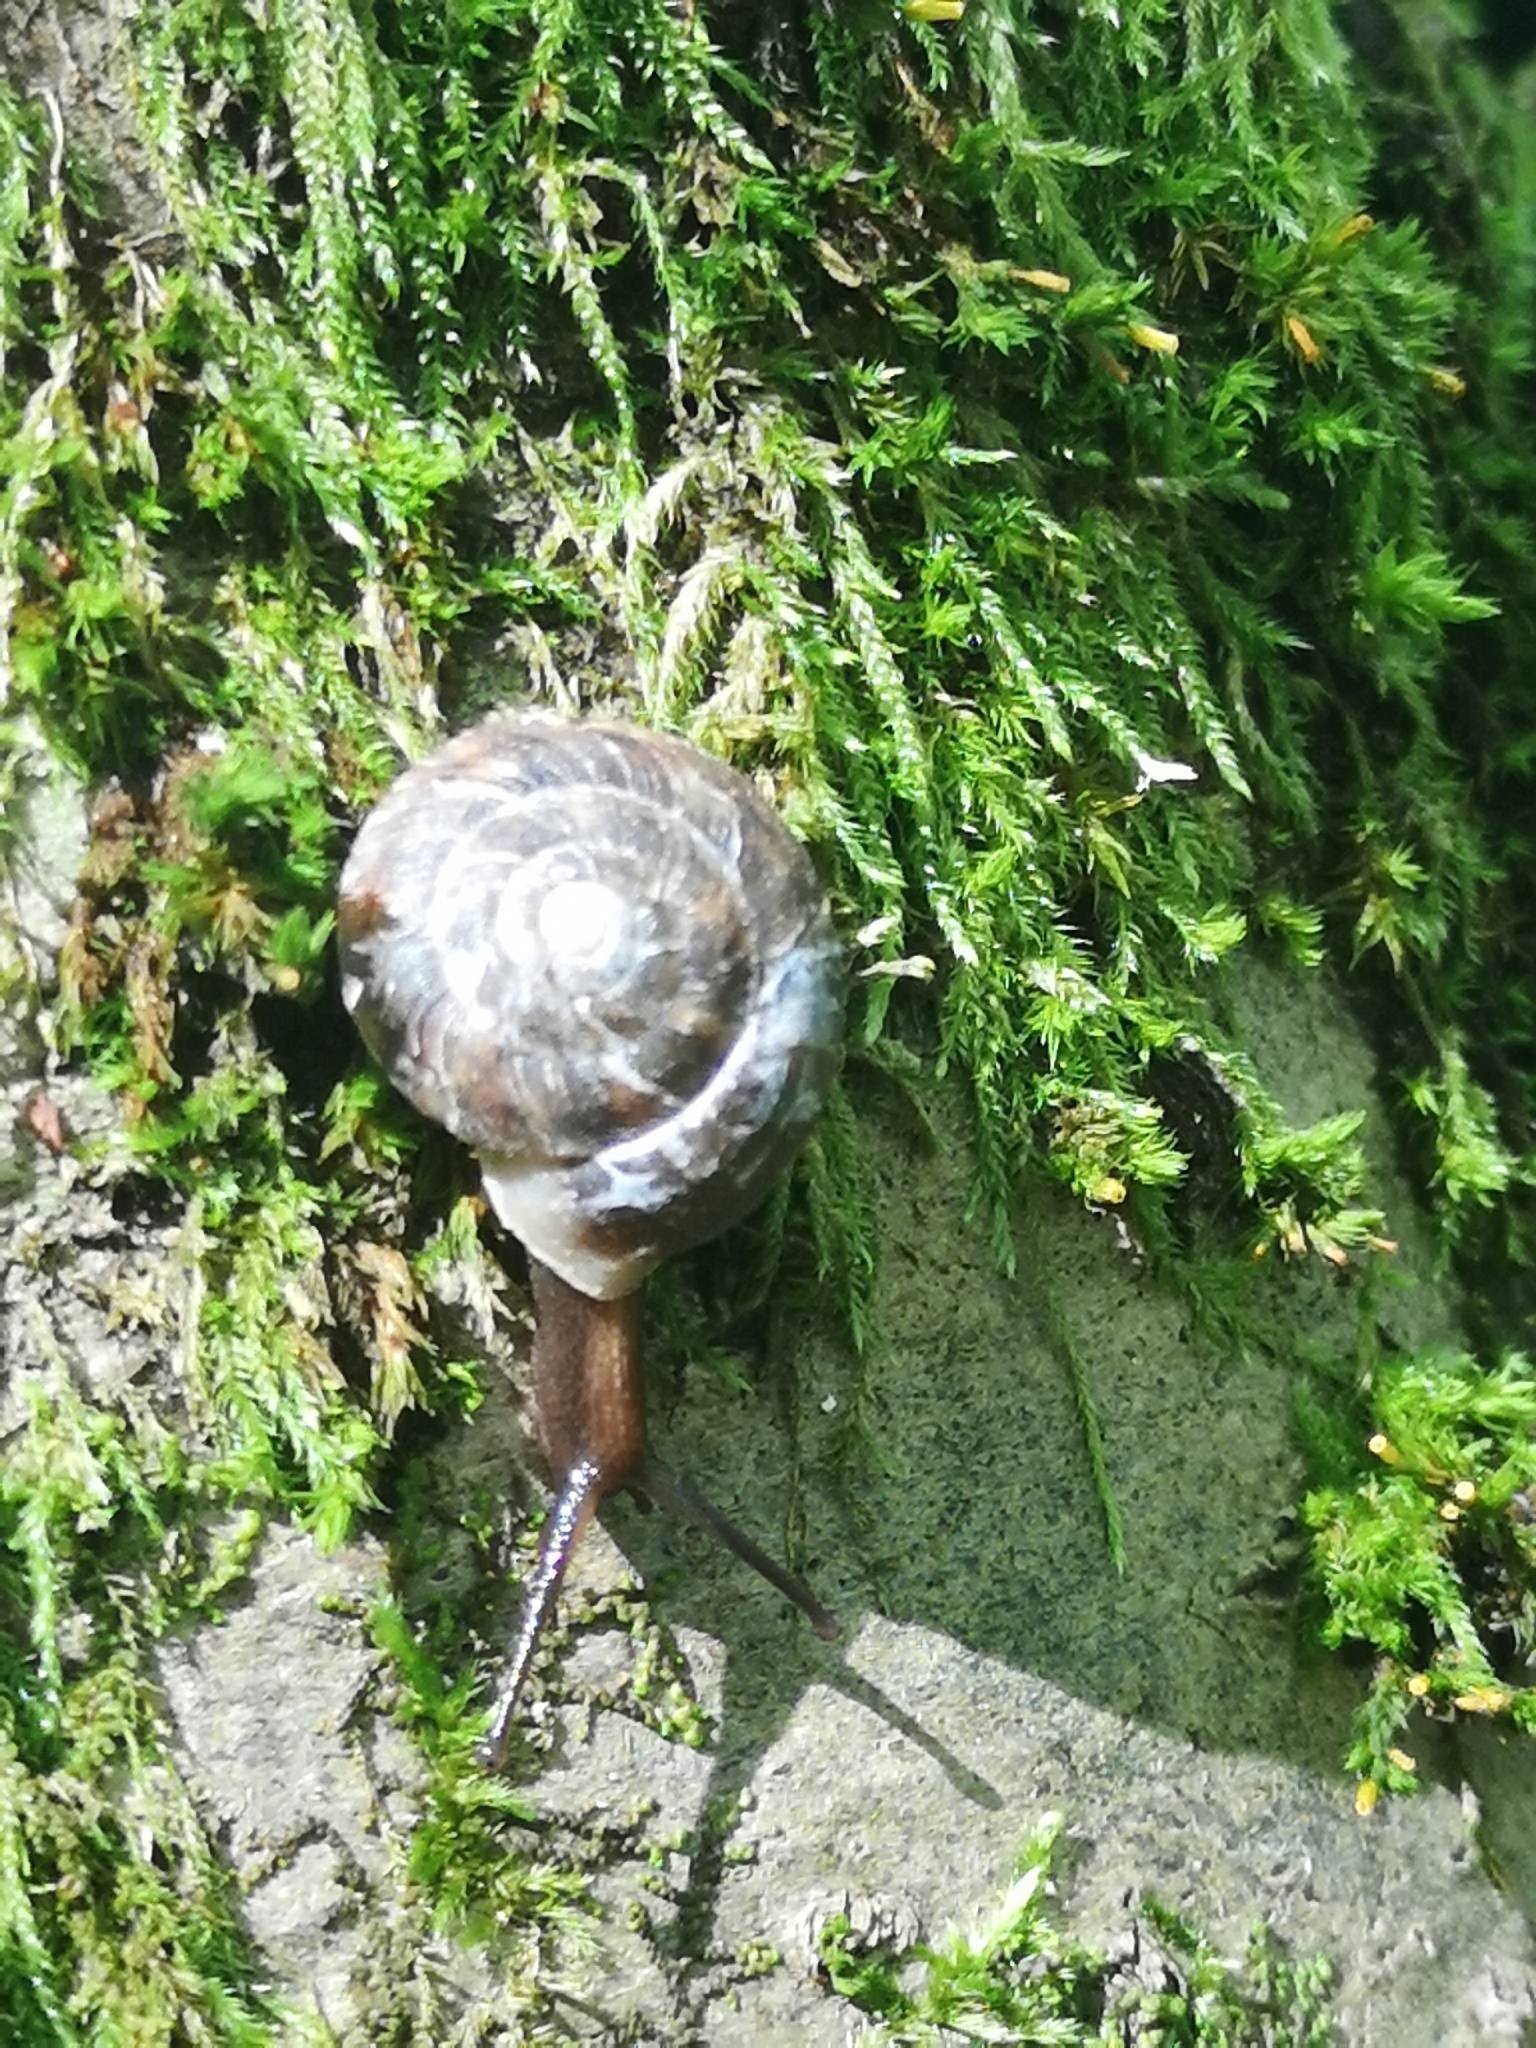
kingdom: Animalia
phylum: Mollusca
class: Gastropoda
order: Stylommatophora
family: Helicidae
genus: Helicigona
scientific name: Helicigona lapicida
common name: Lapidary snail
